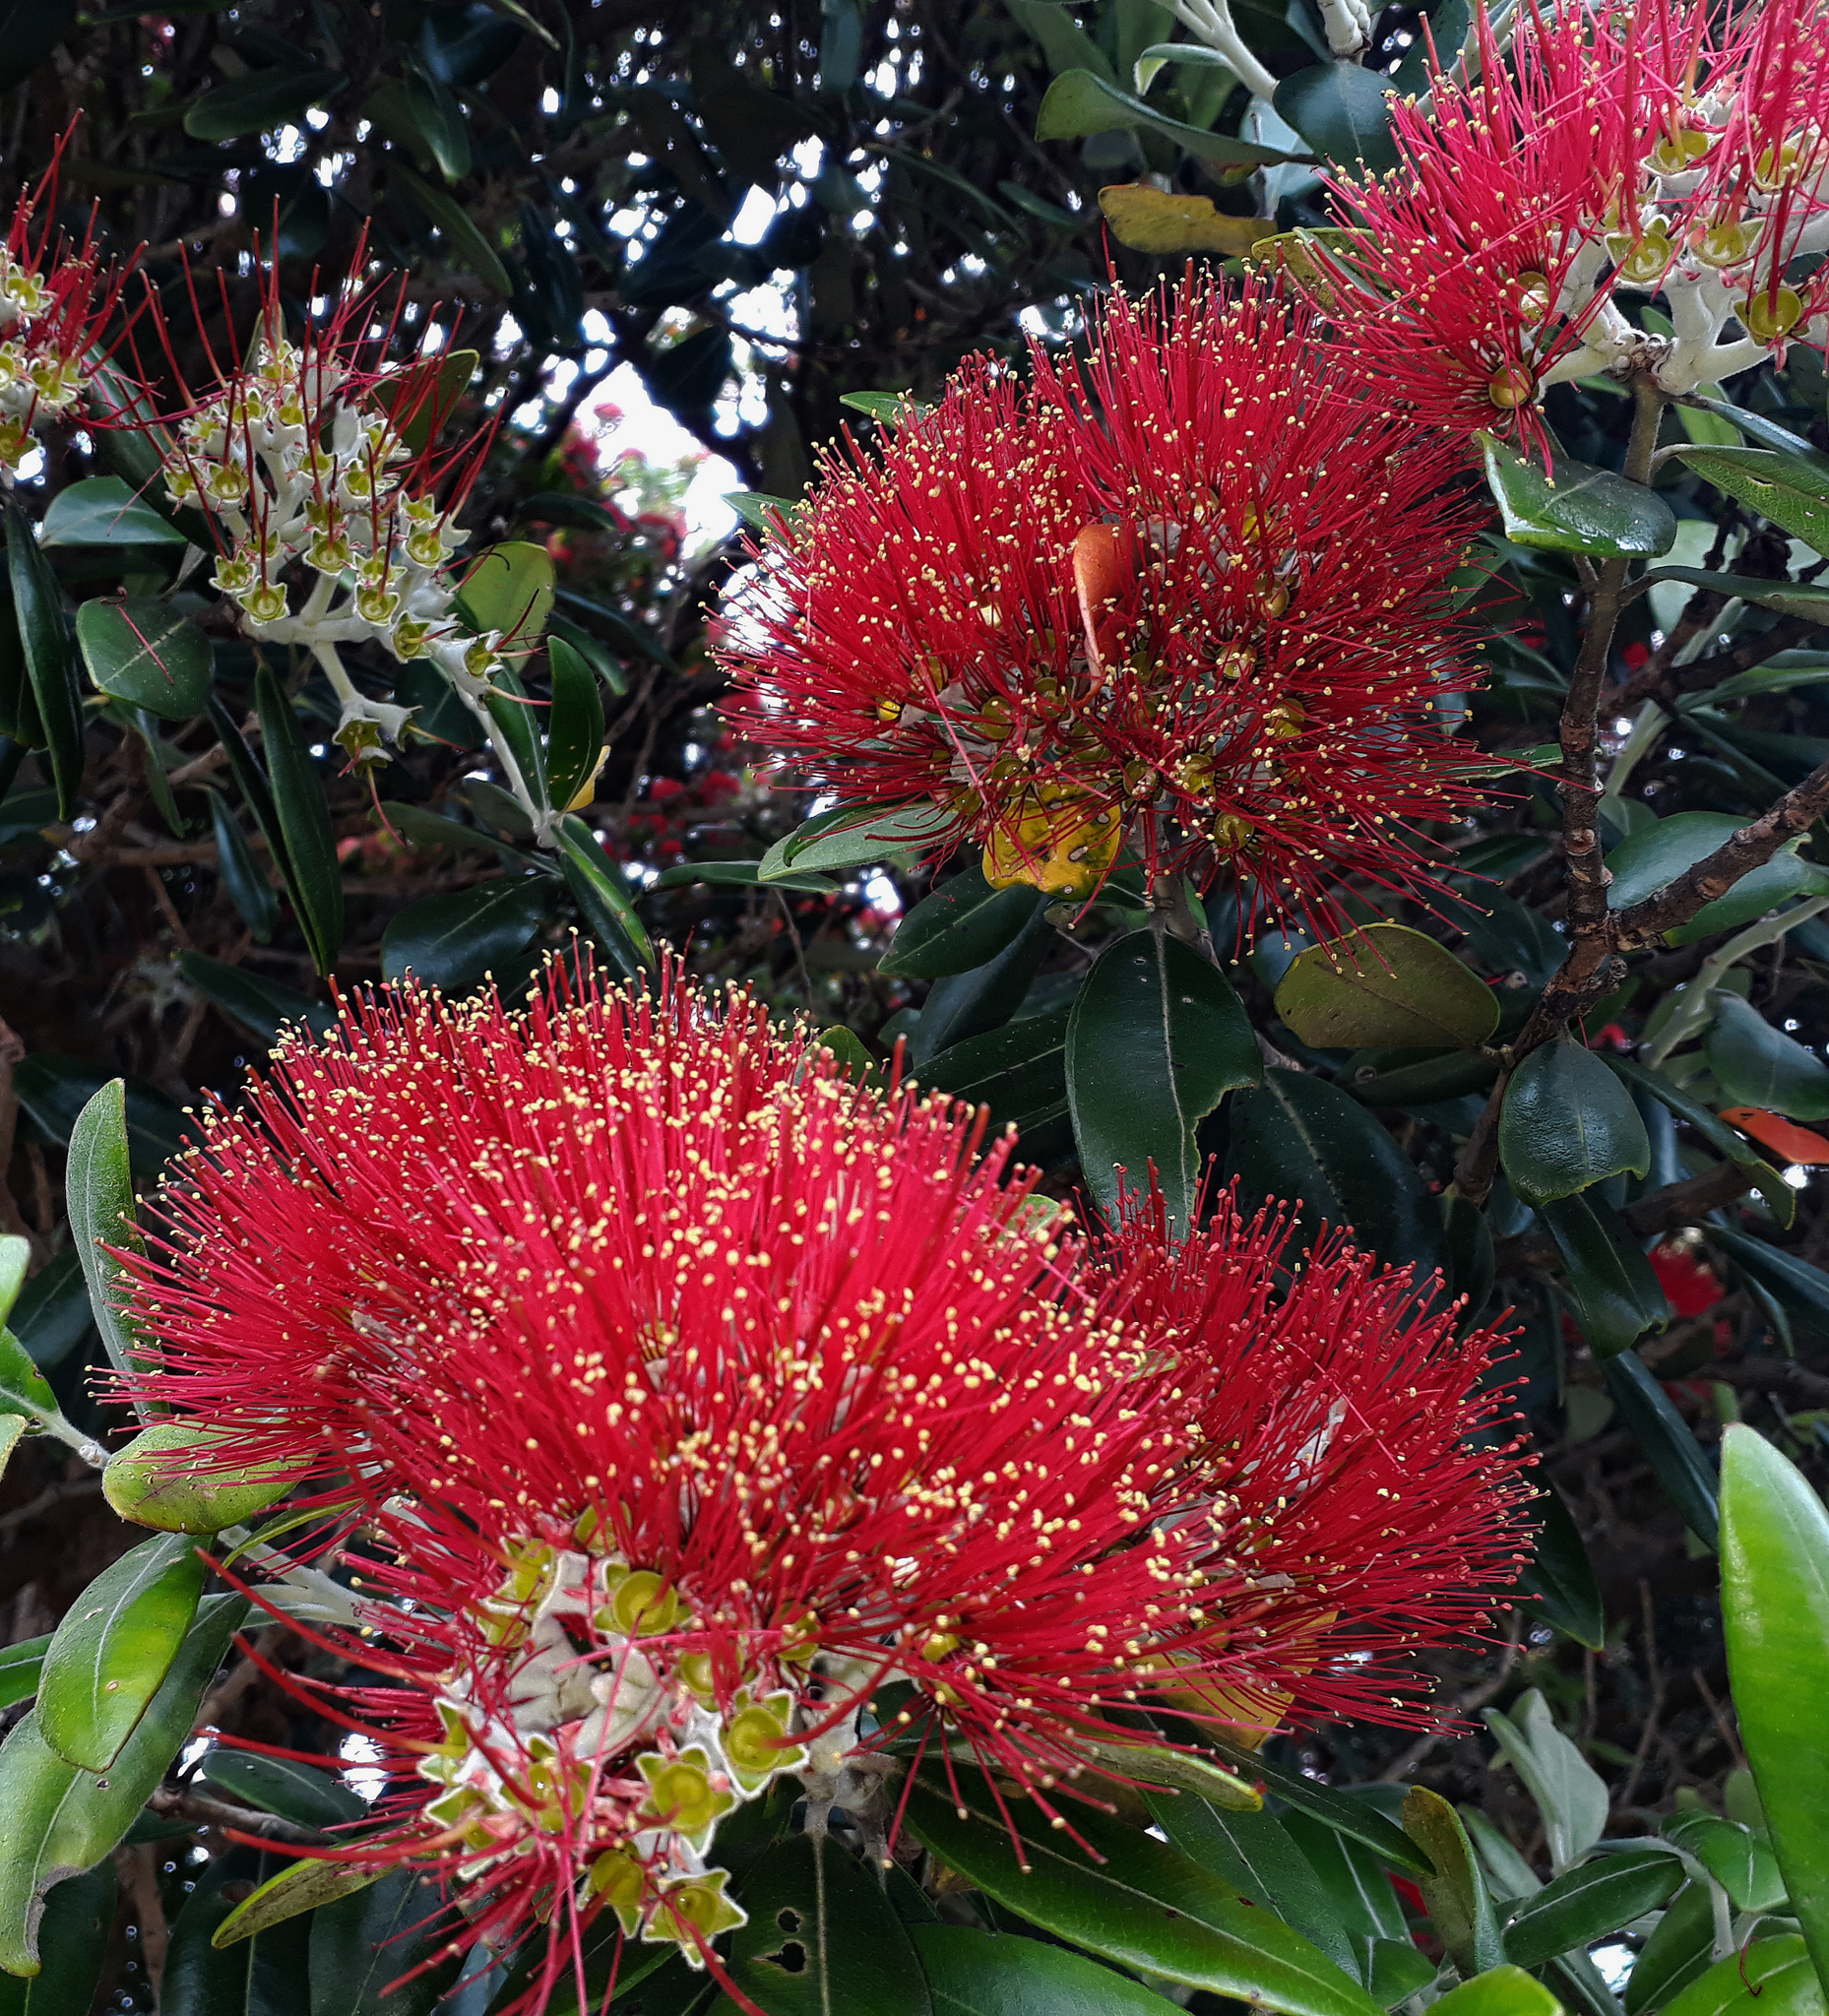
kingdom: Plantae
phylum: Tracheophyta
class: Magnoliopsida
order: Myrtales
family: Myrtaceae
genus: Metrosideros
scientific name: Metrosideros excelsa
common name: New zealand christmastree
